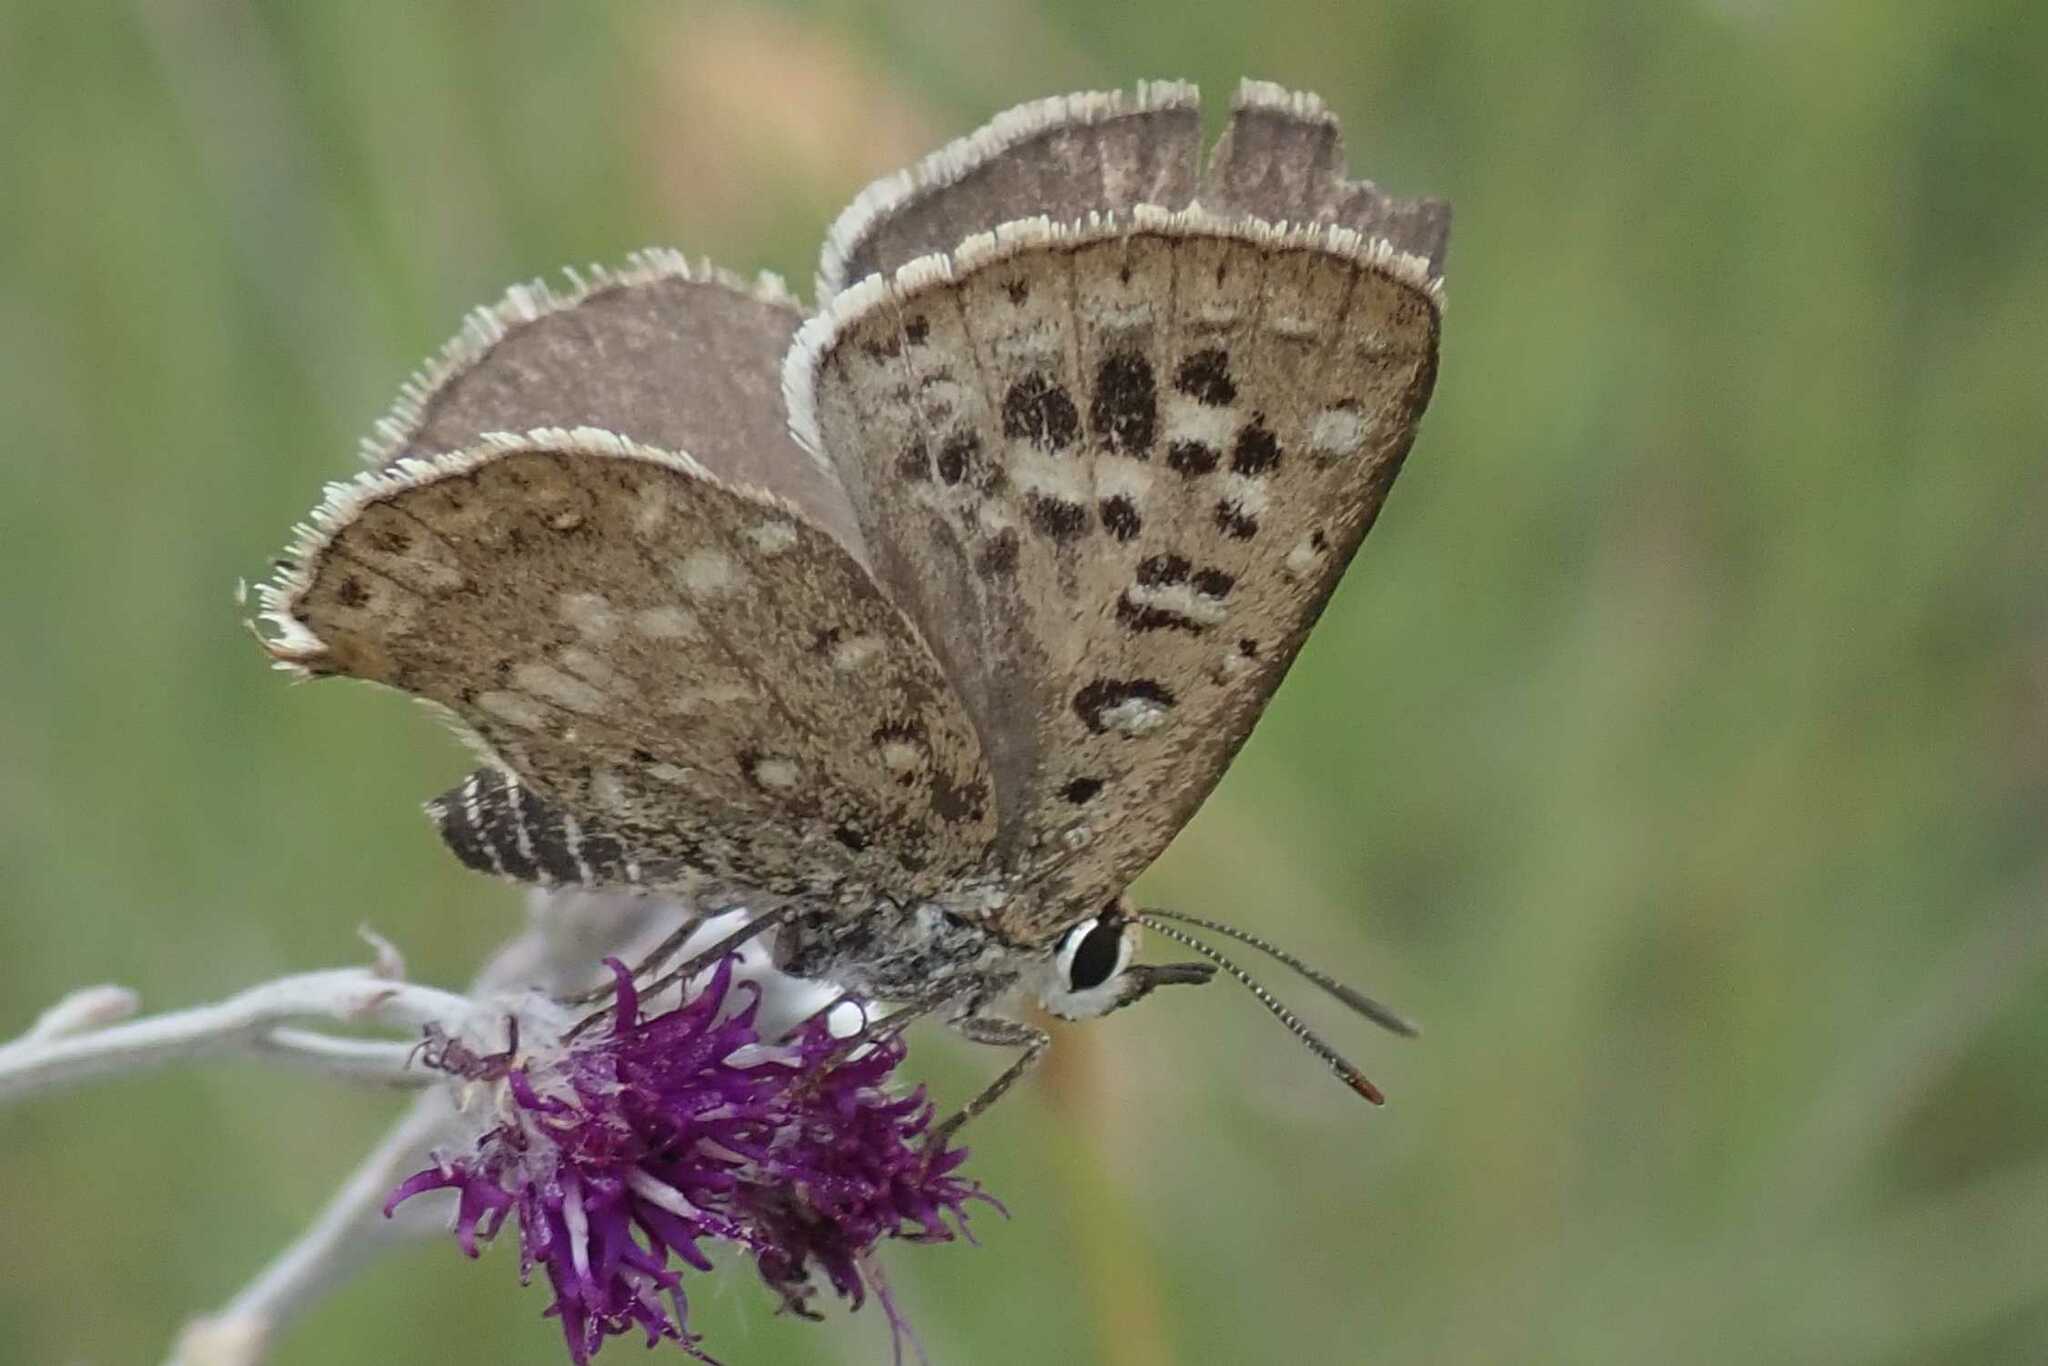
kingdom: Animalia
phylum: Arthropoda
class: Insecta
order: Lepidoptera
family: Lycaenidae
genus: Crudaria
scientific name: Crudaria leroma
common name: Silver spotted grey
